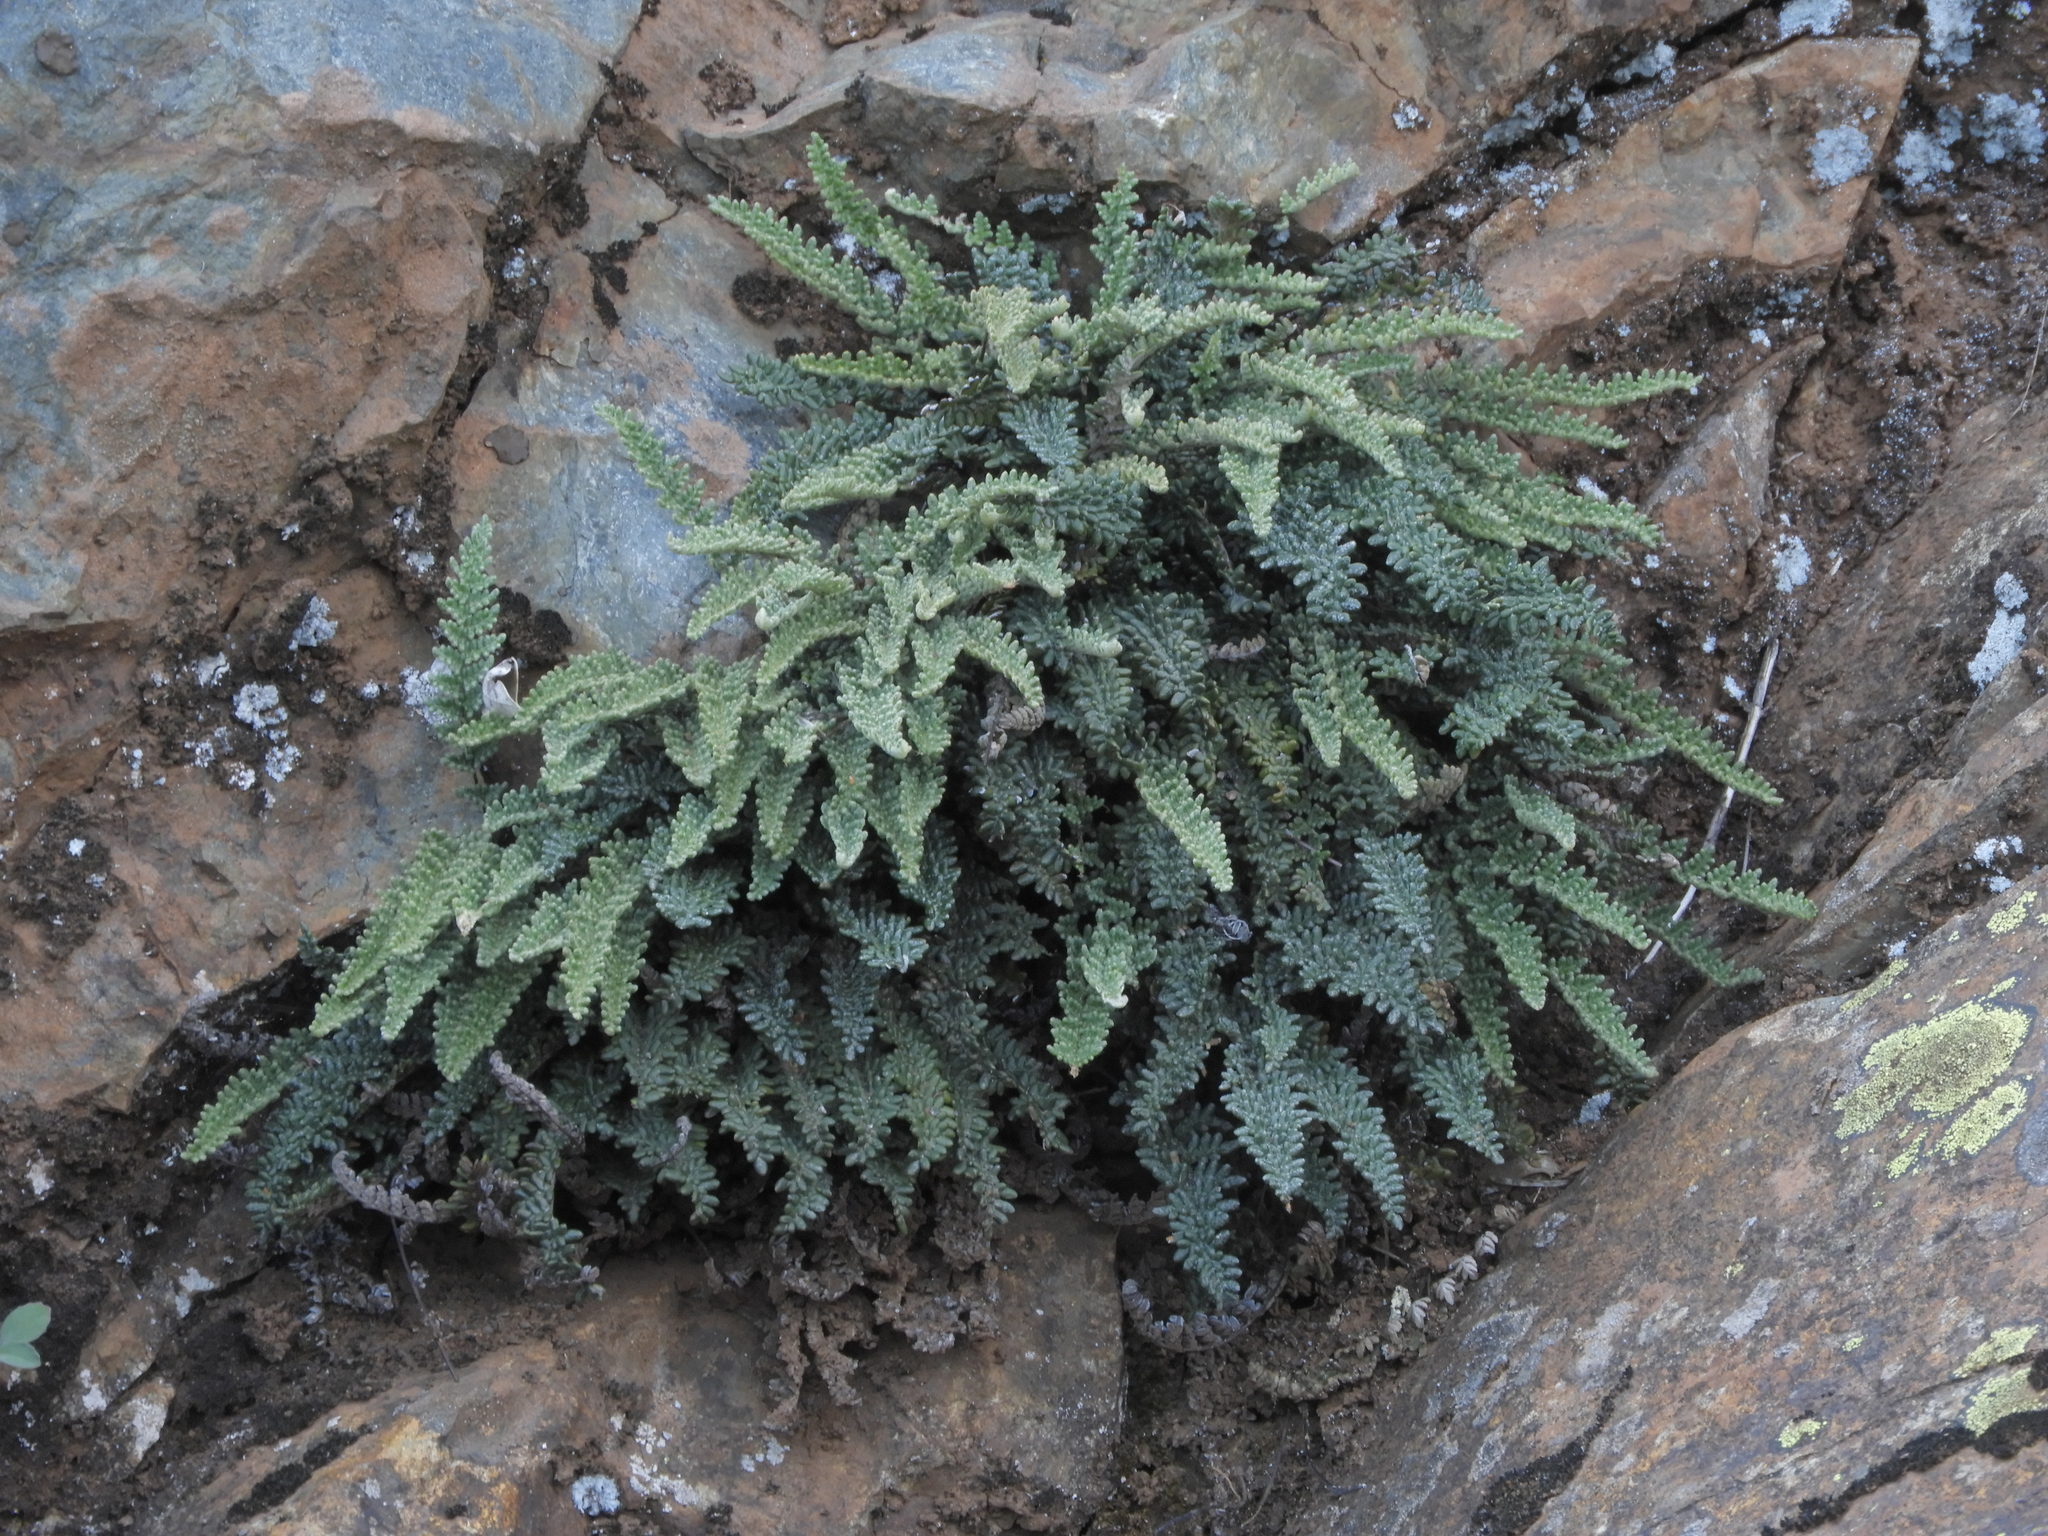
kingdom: Plantae
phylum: Tracheophyta
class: Polypodiopsida
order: Polypodiales
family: Pteridaceae
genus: Myriopteris
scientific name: Myriopteris gracillima
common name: Lace fern
